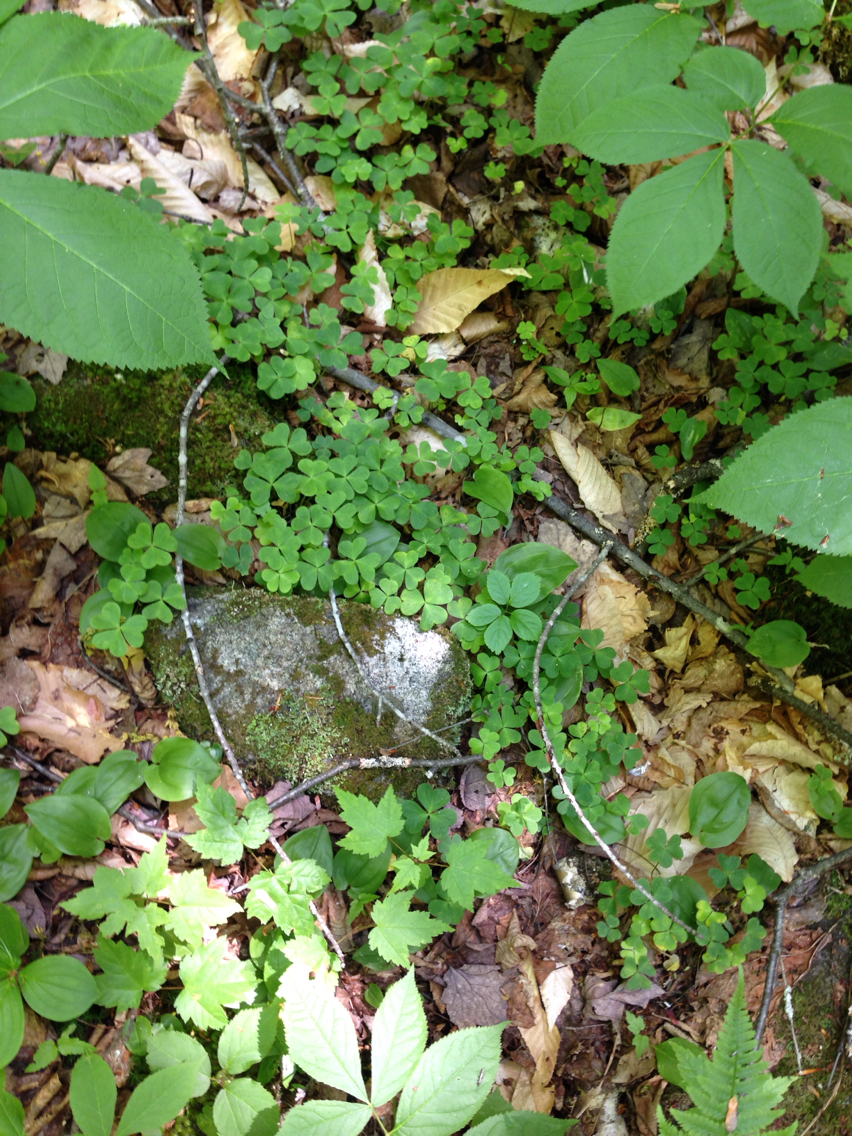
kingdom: Plantae
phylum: Tracheophyta
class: Magnoliopsida
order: Oxalidales
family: Oxalidaceae
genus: Oxalis
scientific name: Oxalis montana
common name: American wood-sorrel
